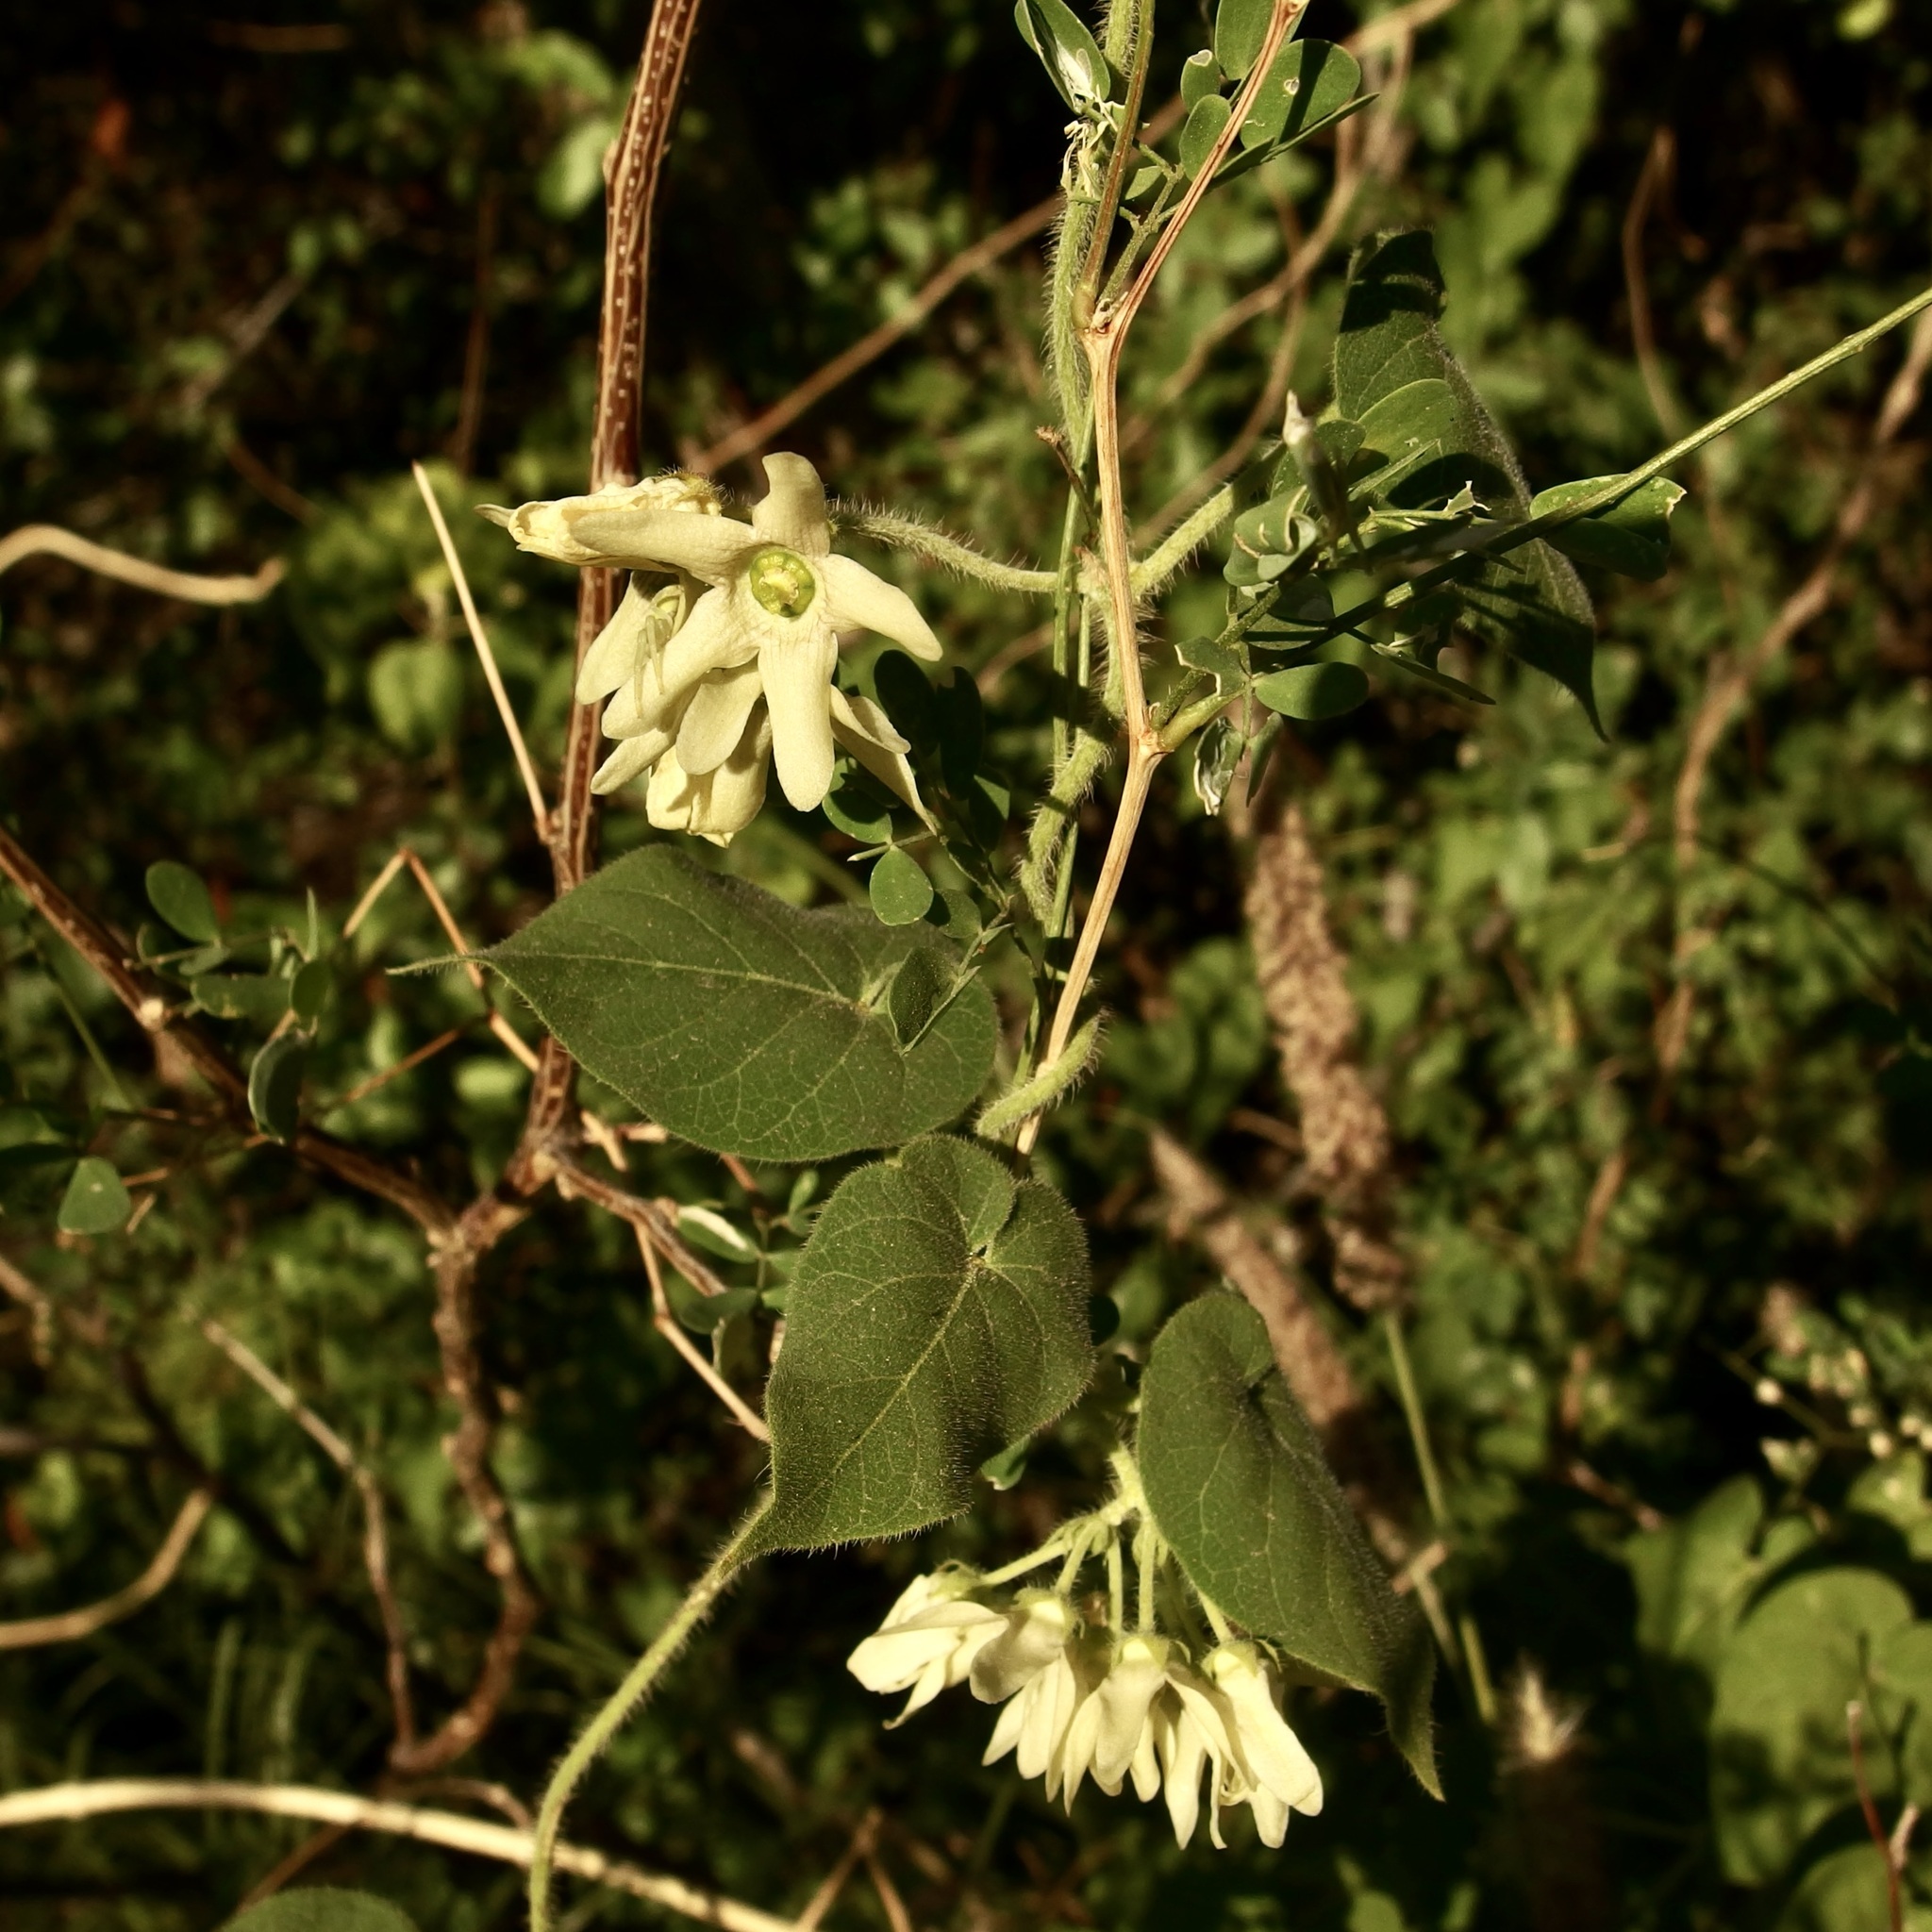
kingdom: Plantae
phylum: Tracheophyta
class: Magnoliopsida
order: Gentianales
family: Apocynaceae
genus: Polystemma
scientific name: Polystemma cordifolium
